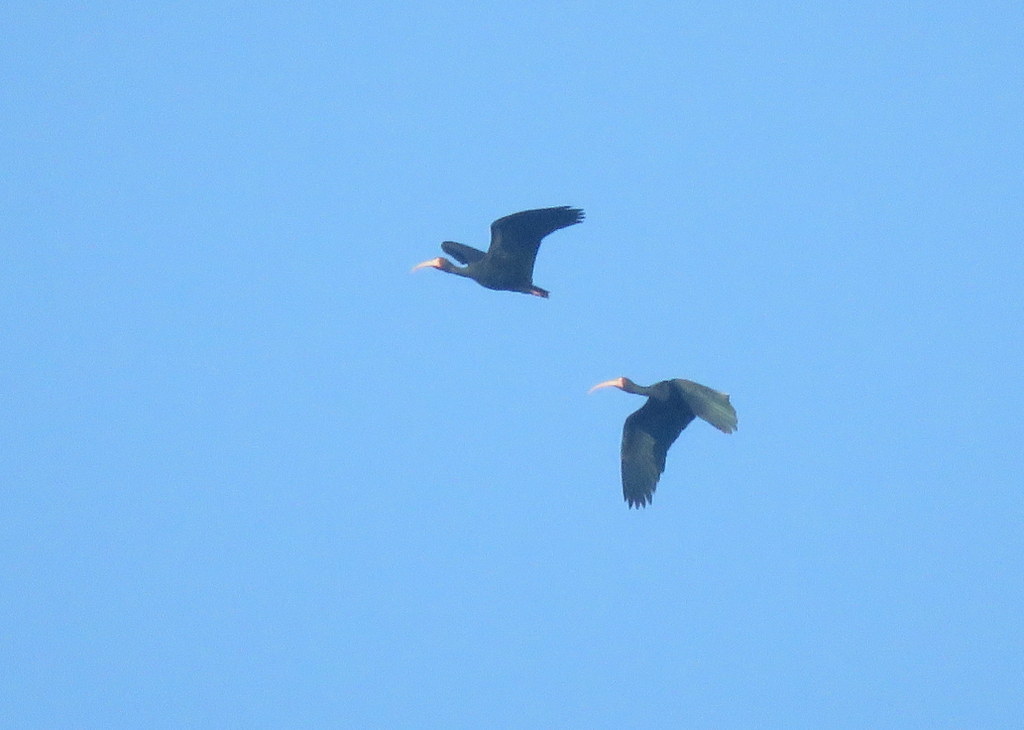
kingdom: Animalia
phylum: Chordata
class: Aves
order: Pelecaniformes
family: Threskiornithidae
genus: Phimosus
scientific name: Phimosus infuscatus
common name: Bare-faced ibis
